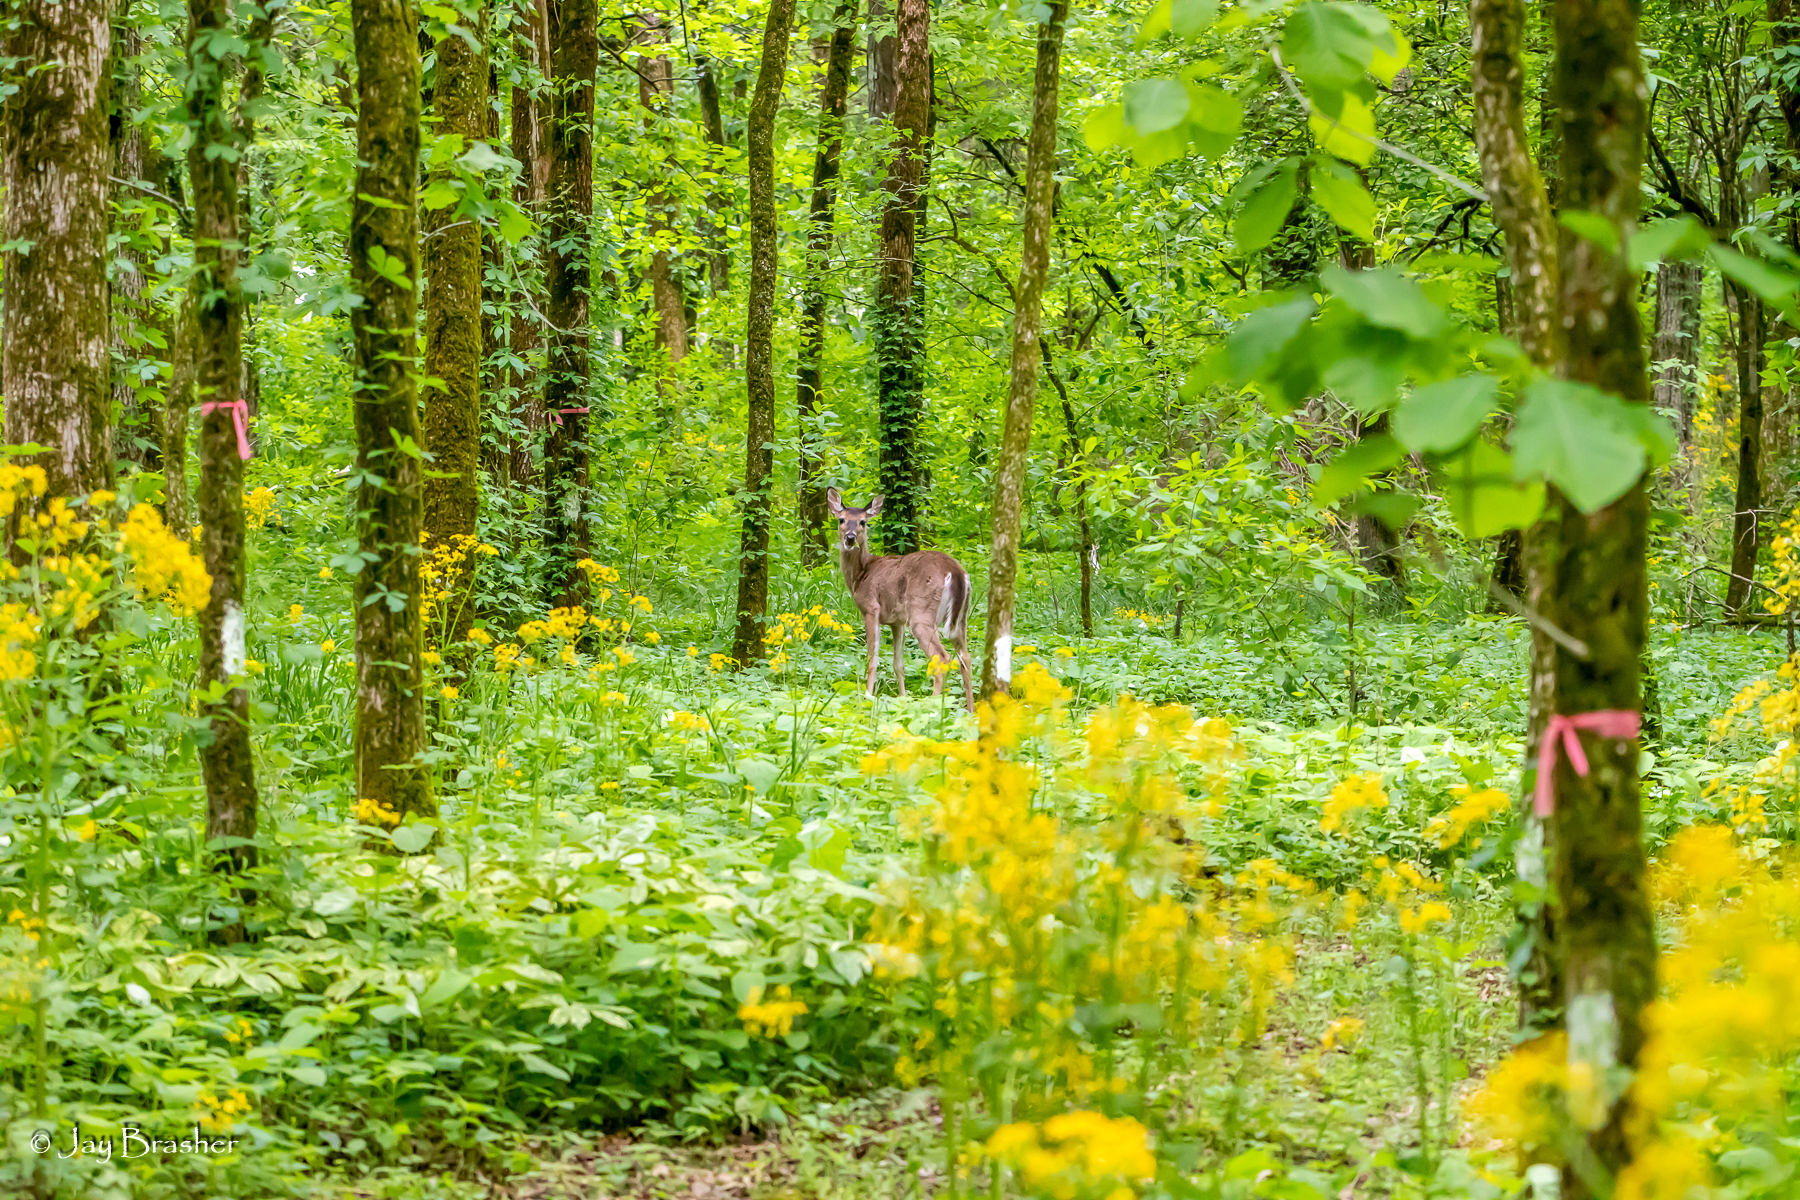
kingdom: Animalia
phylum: Chordata
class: Mammalia
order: Artiodactyla
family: Cervidae
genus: Odocoileus
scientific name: Odocoileus virginianus
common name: White-tailed deer
